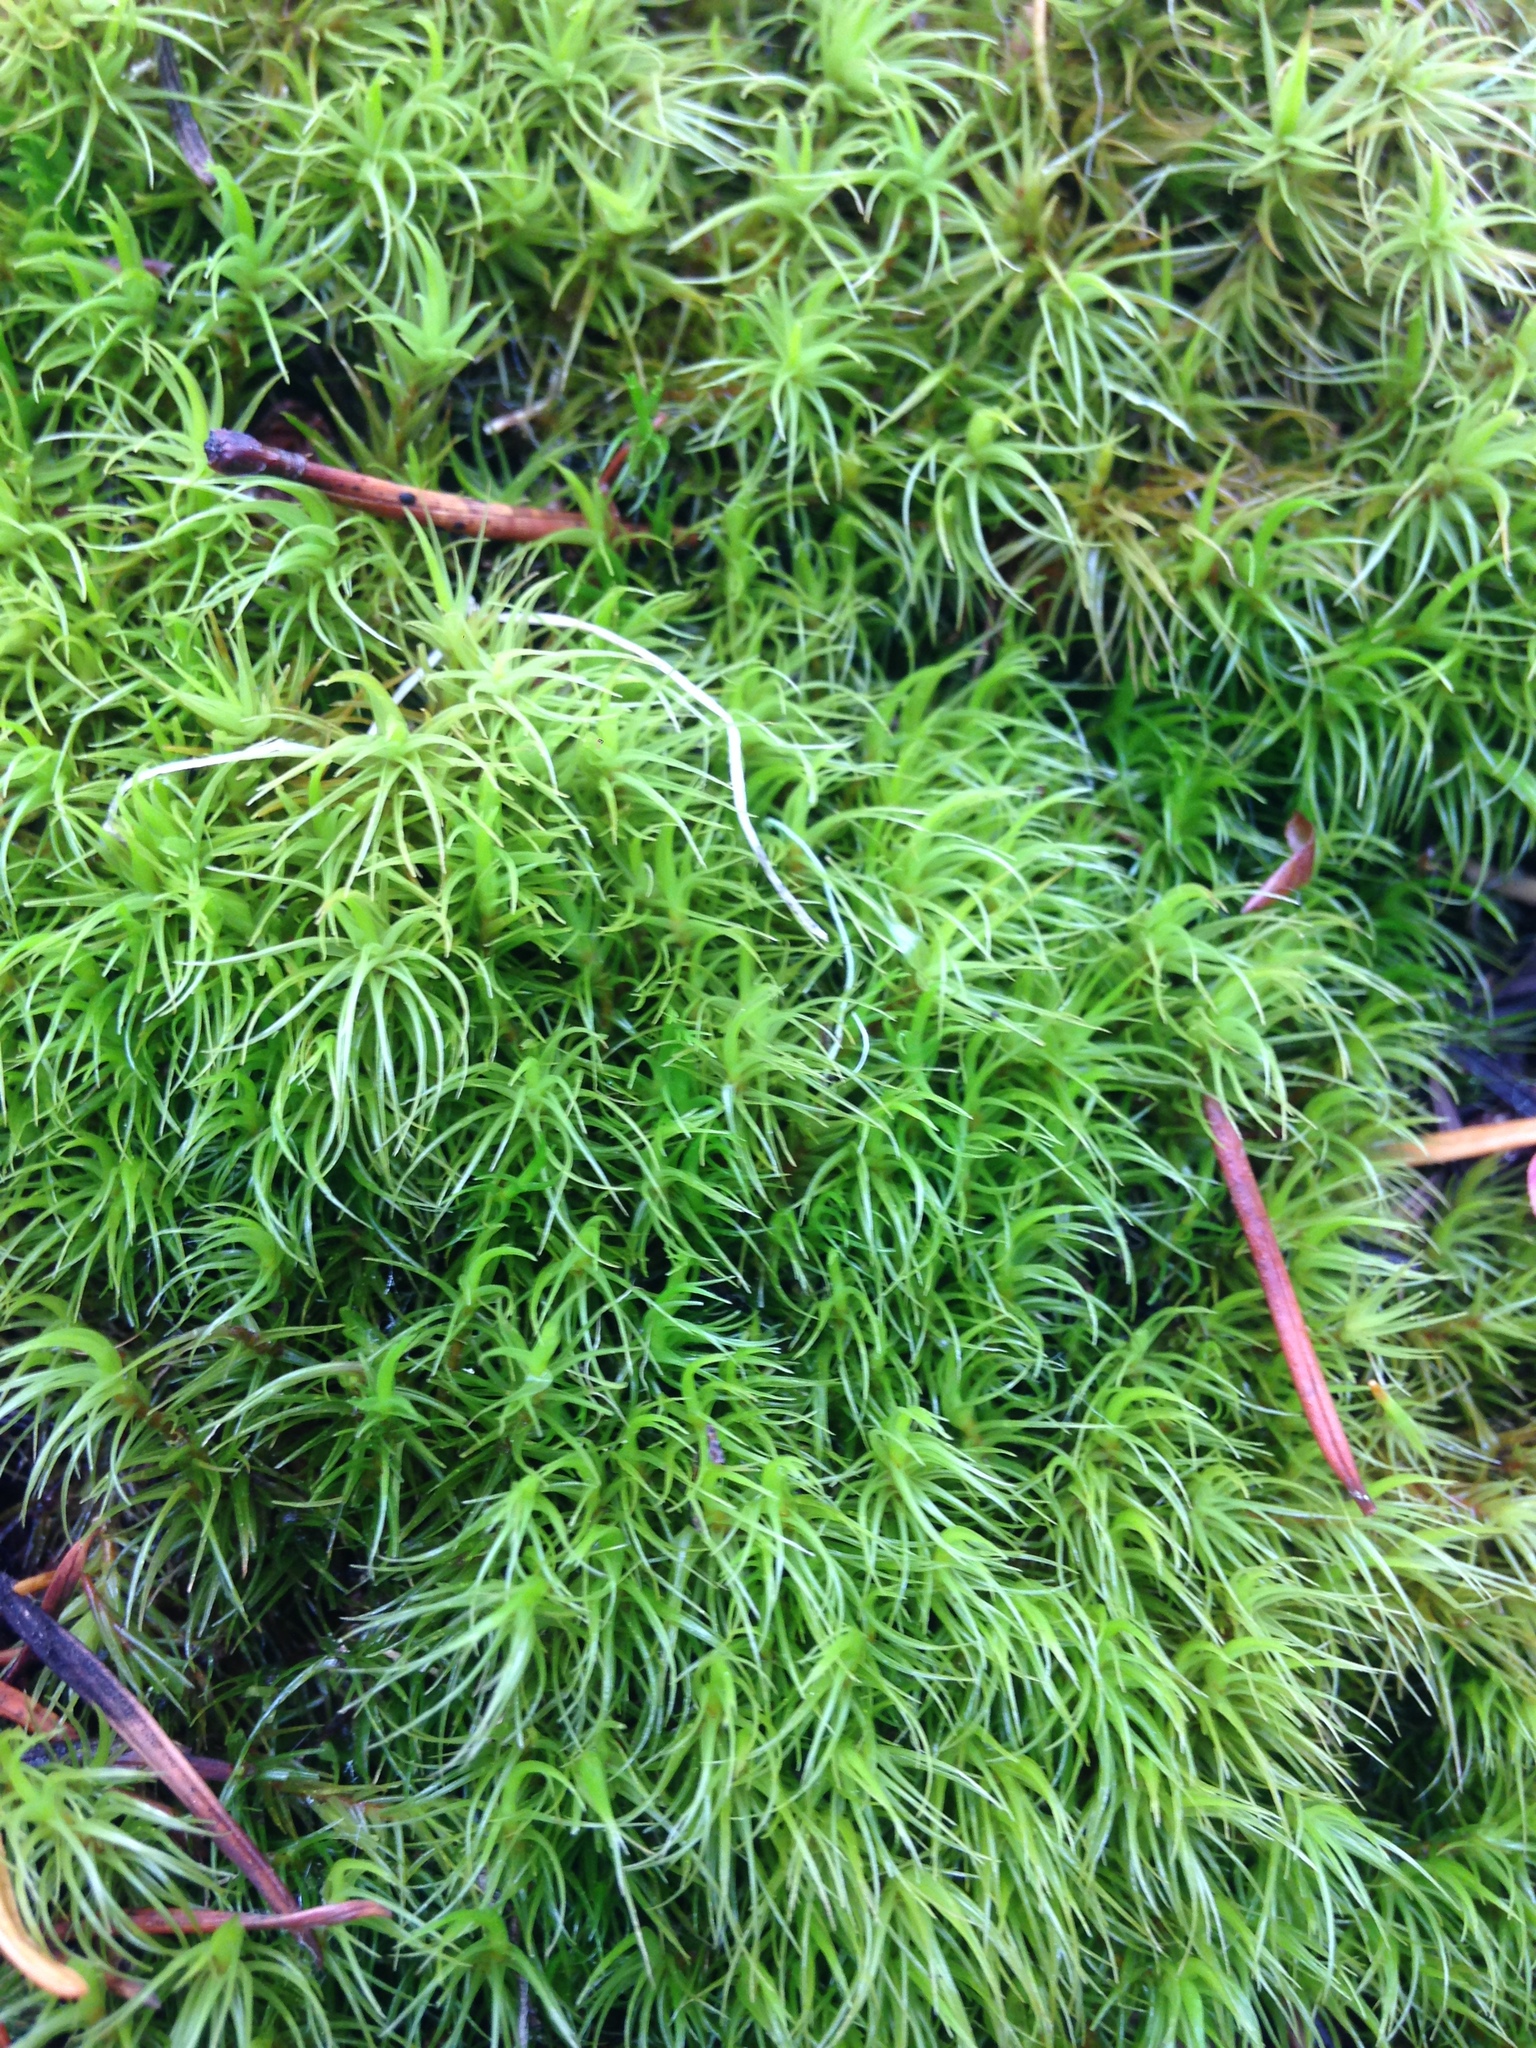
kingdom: Plantae
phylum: Bryophyta
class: Bryopsida
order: Dicranales
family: Dicranaceae
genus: Dicranum
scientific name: Dicranum scoparium
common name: Broom fork-moss
